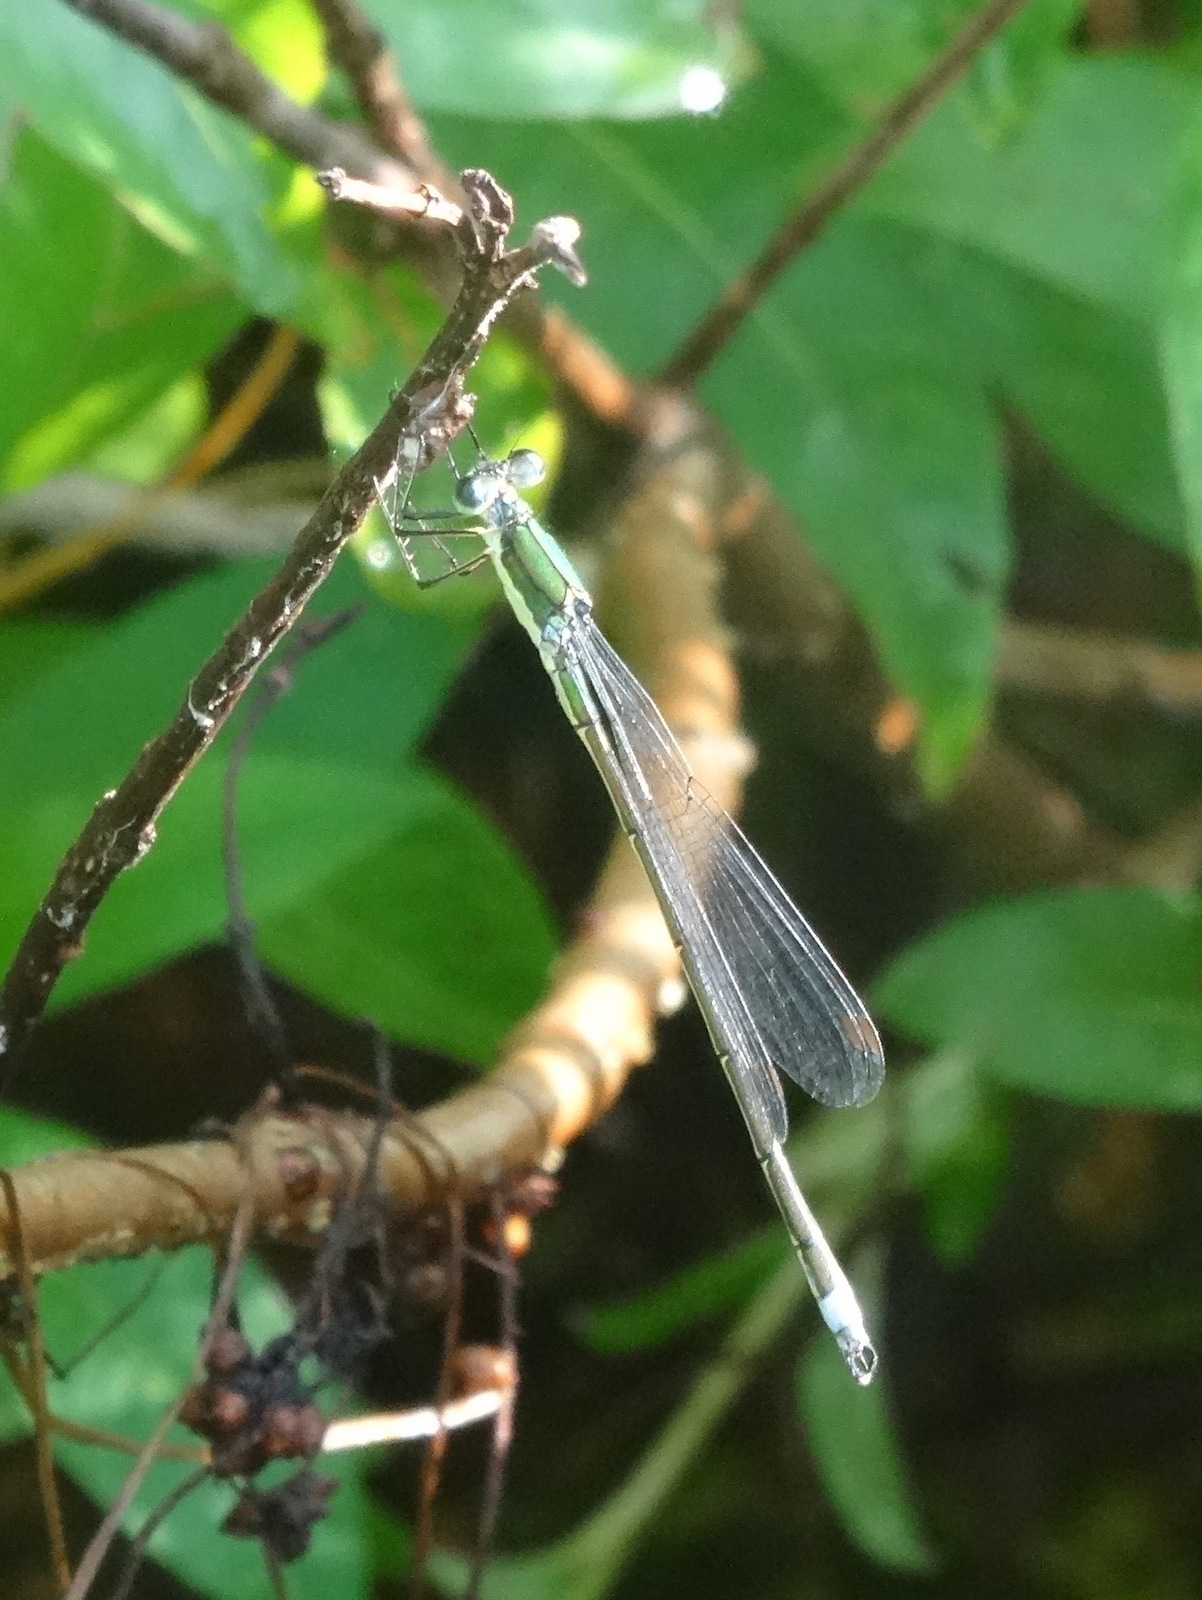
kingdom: Animalia
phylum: Arthropoda
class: Insecta
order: Odonata
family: Lestidae
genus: Lestes
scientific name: Lestes inaequalis
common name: Elegant spreadwing
